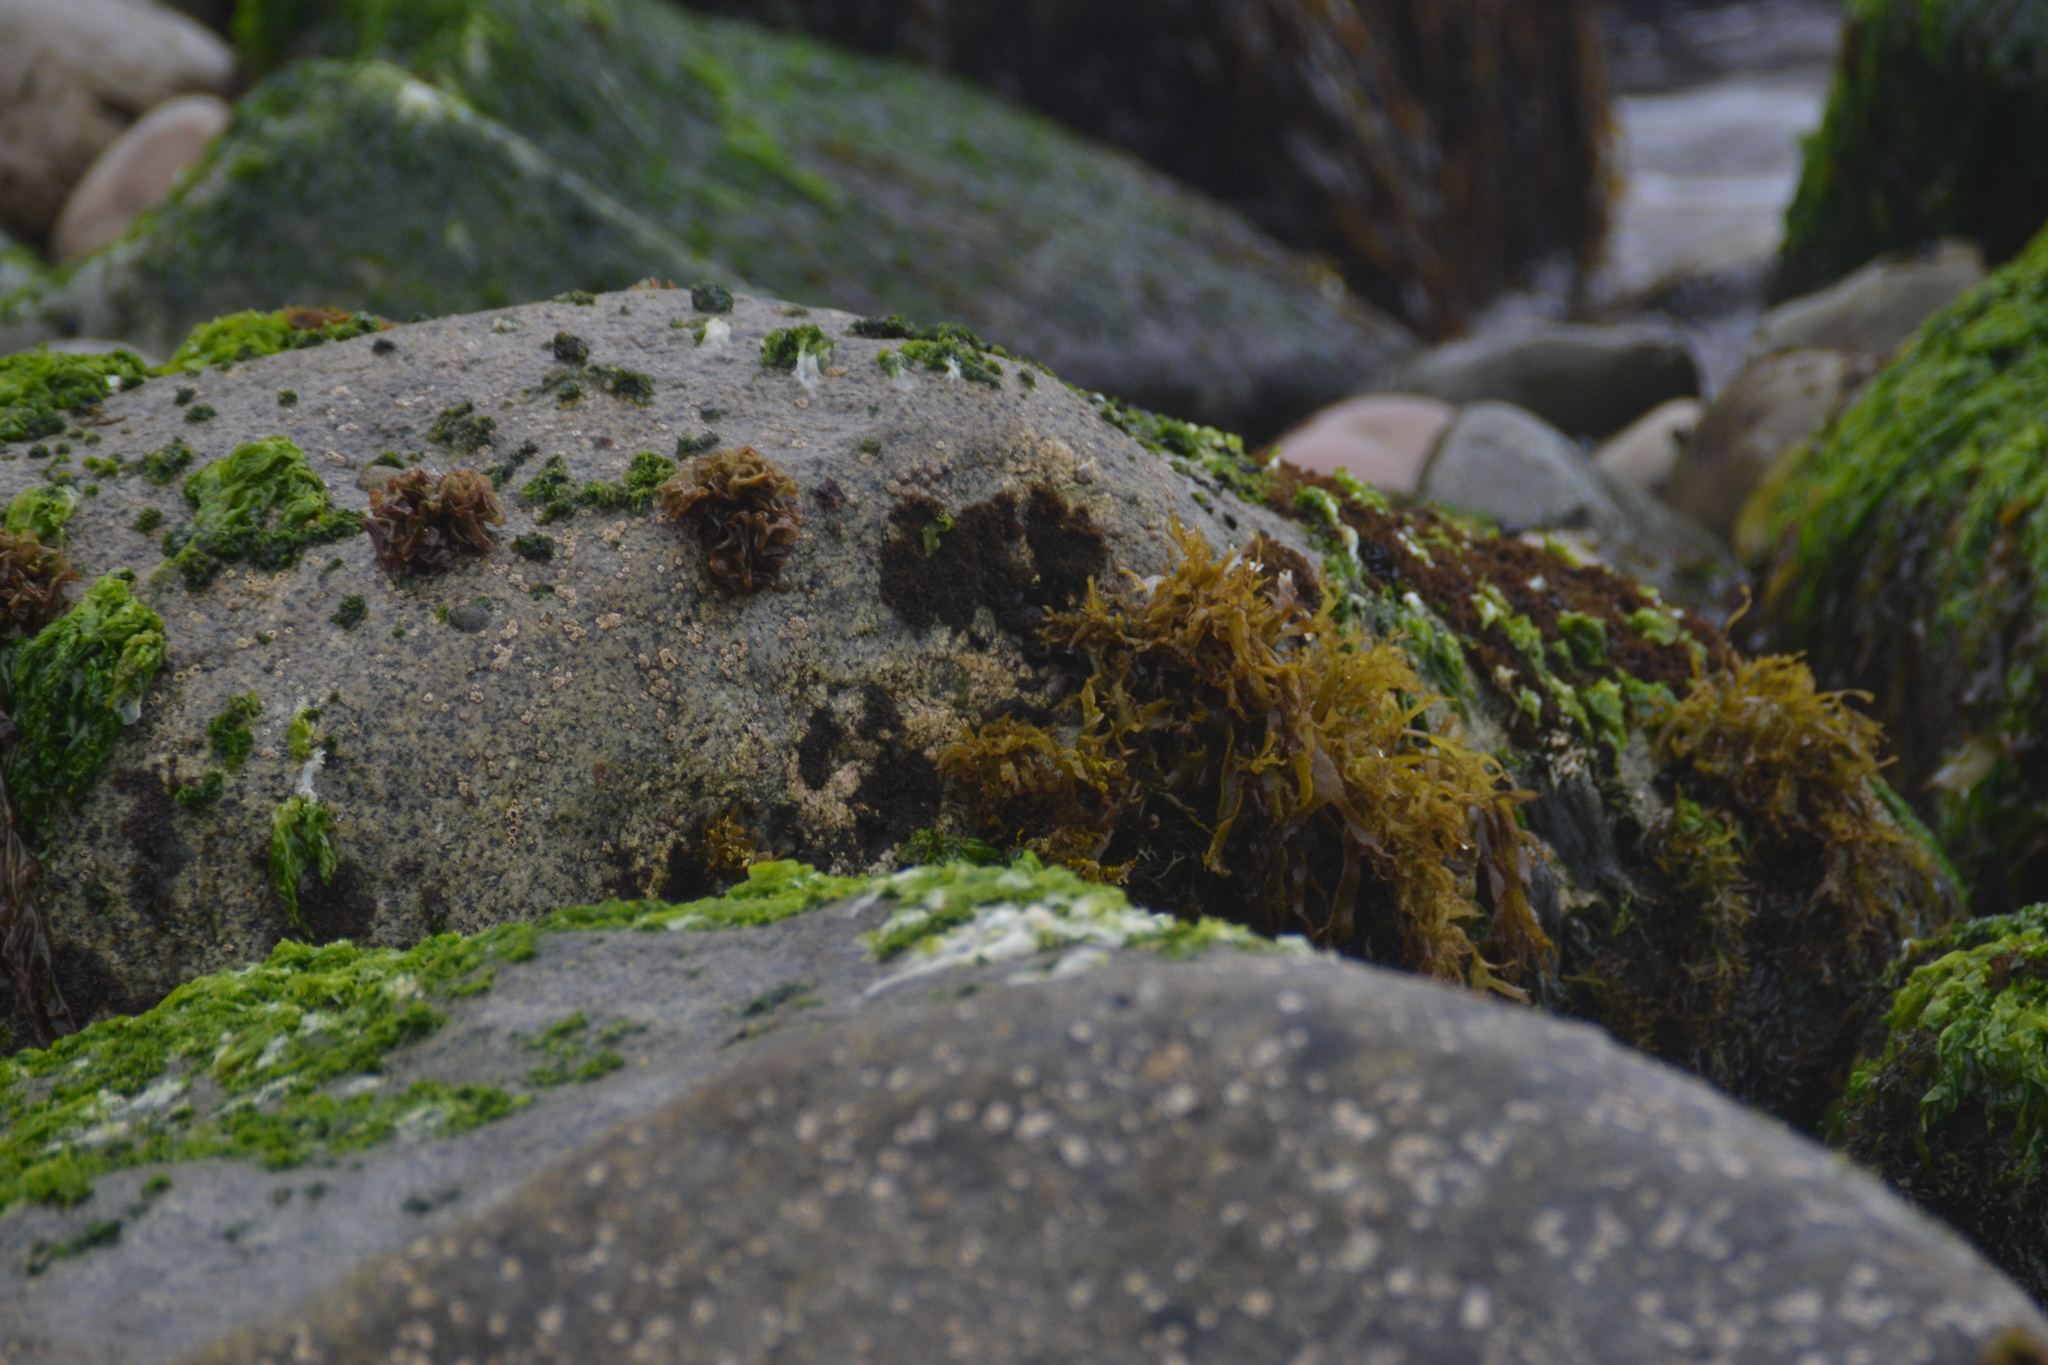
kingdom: Plantae
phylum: Rhodophyta
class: Florideophyceae
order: Gigartinales
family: Phyllophoraceae
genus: Gymnogongrus
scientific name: Gymnogongrus durvillei
